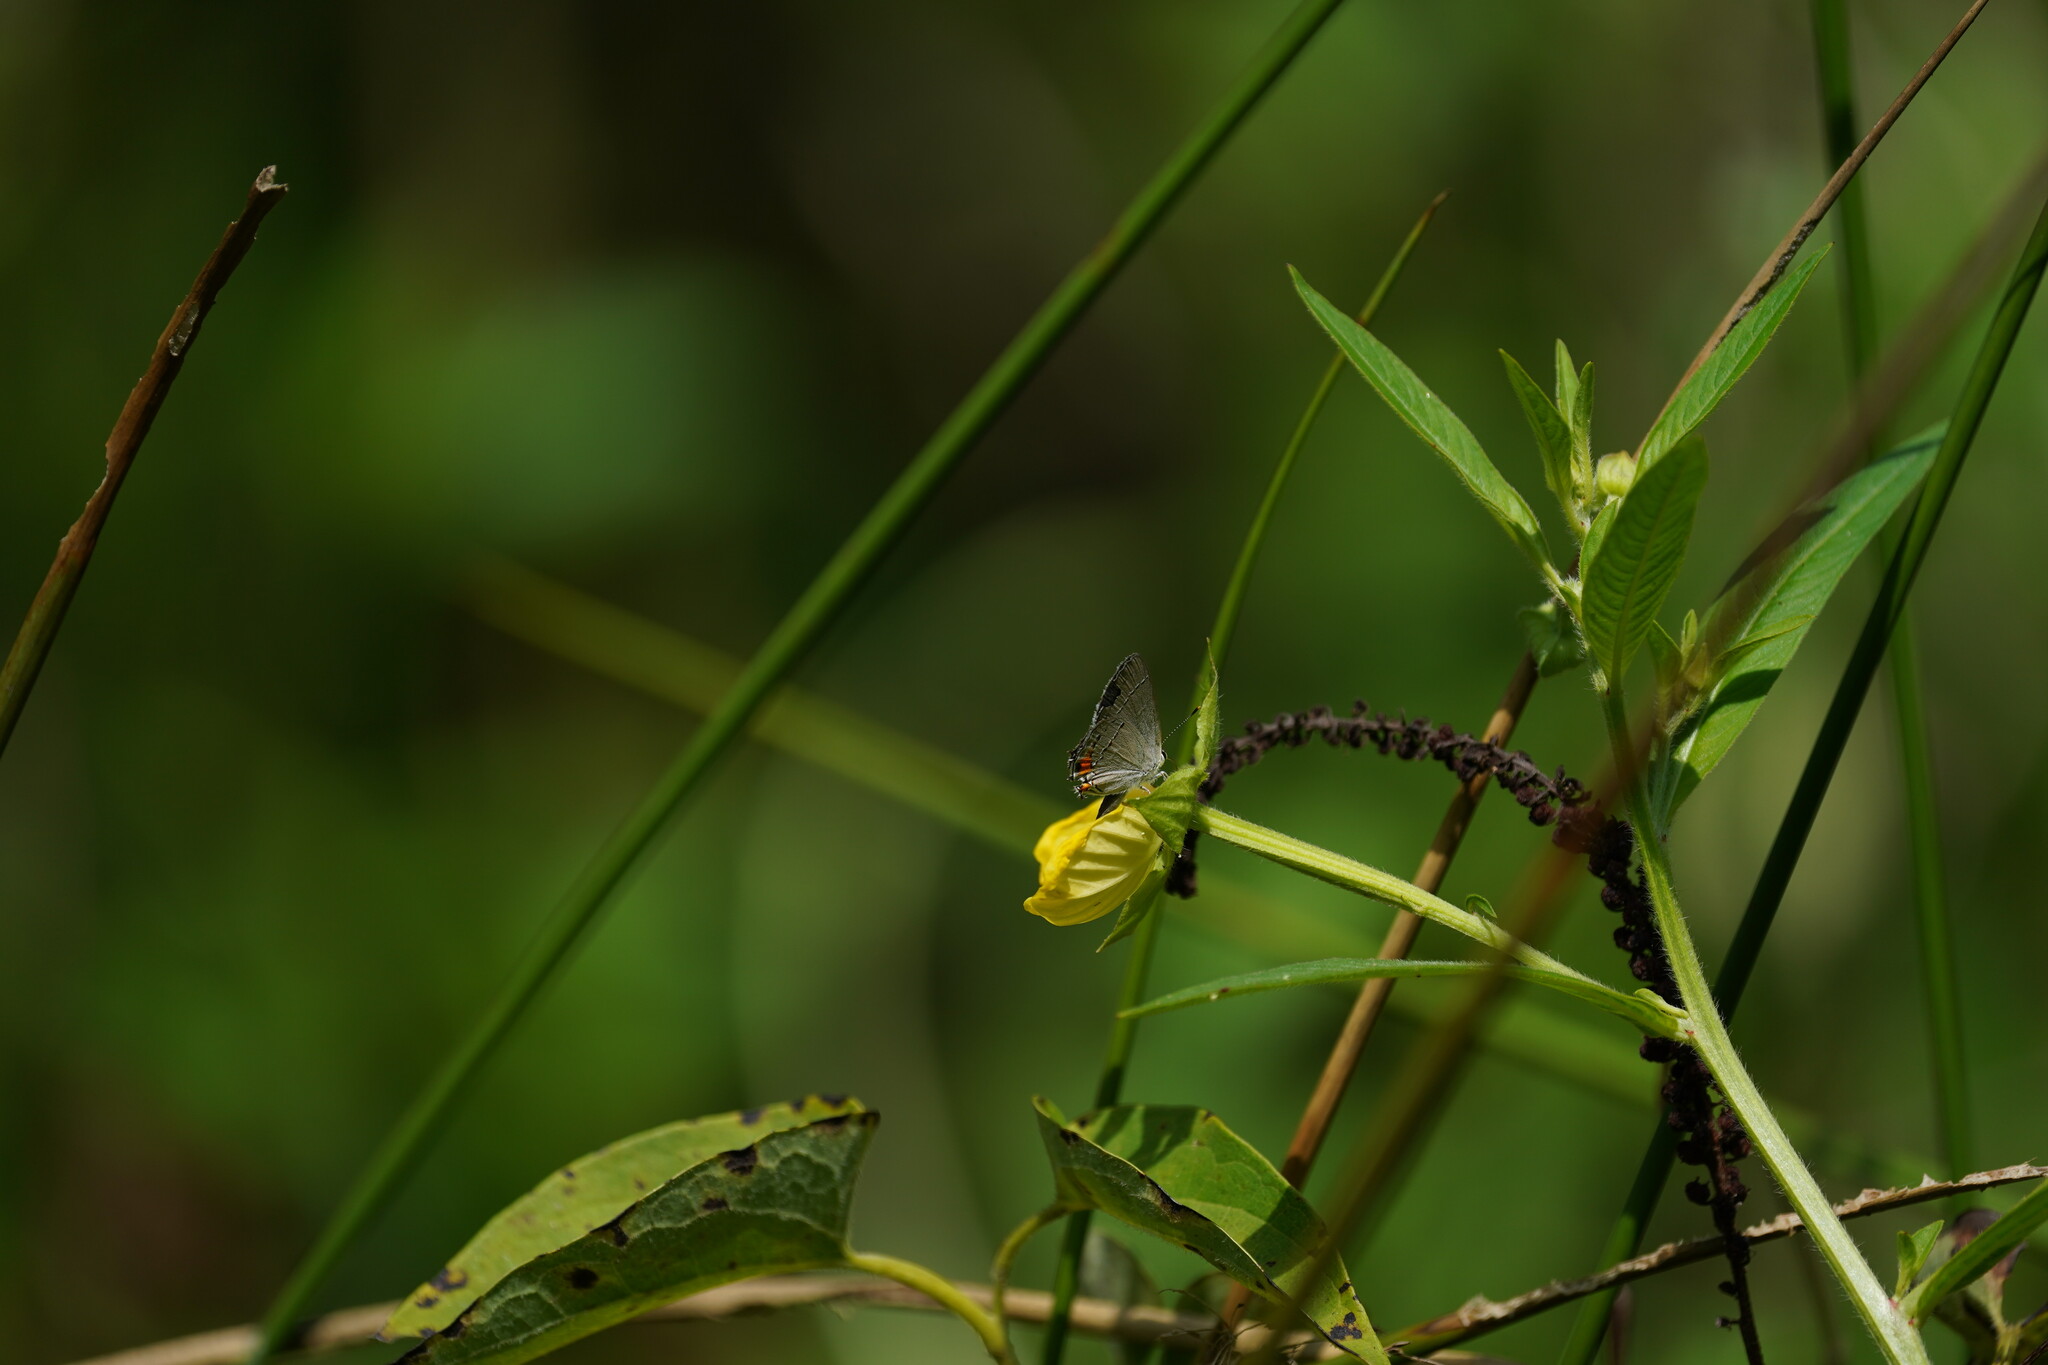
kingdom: Animalia
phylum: Arthropoda
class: Insecta
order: Lepidoptera
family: Lycaenidae
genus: Strymon
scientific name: Strymon melinus
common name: Gray hairstreak
